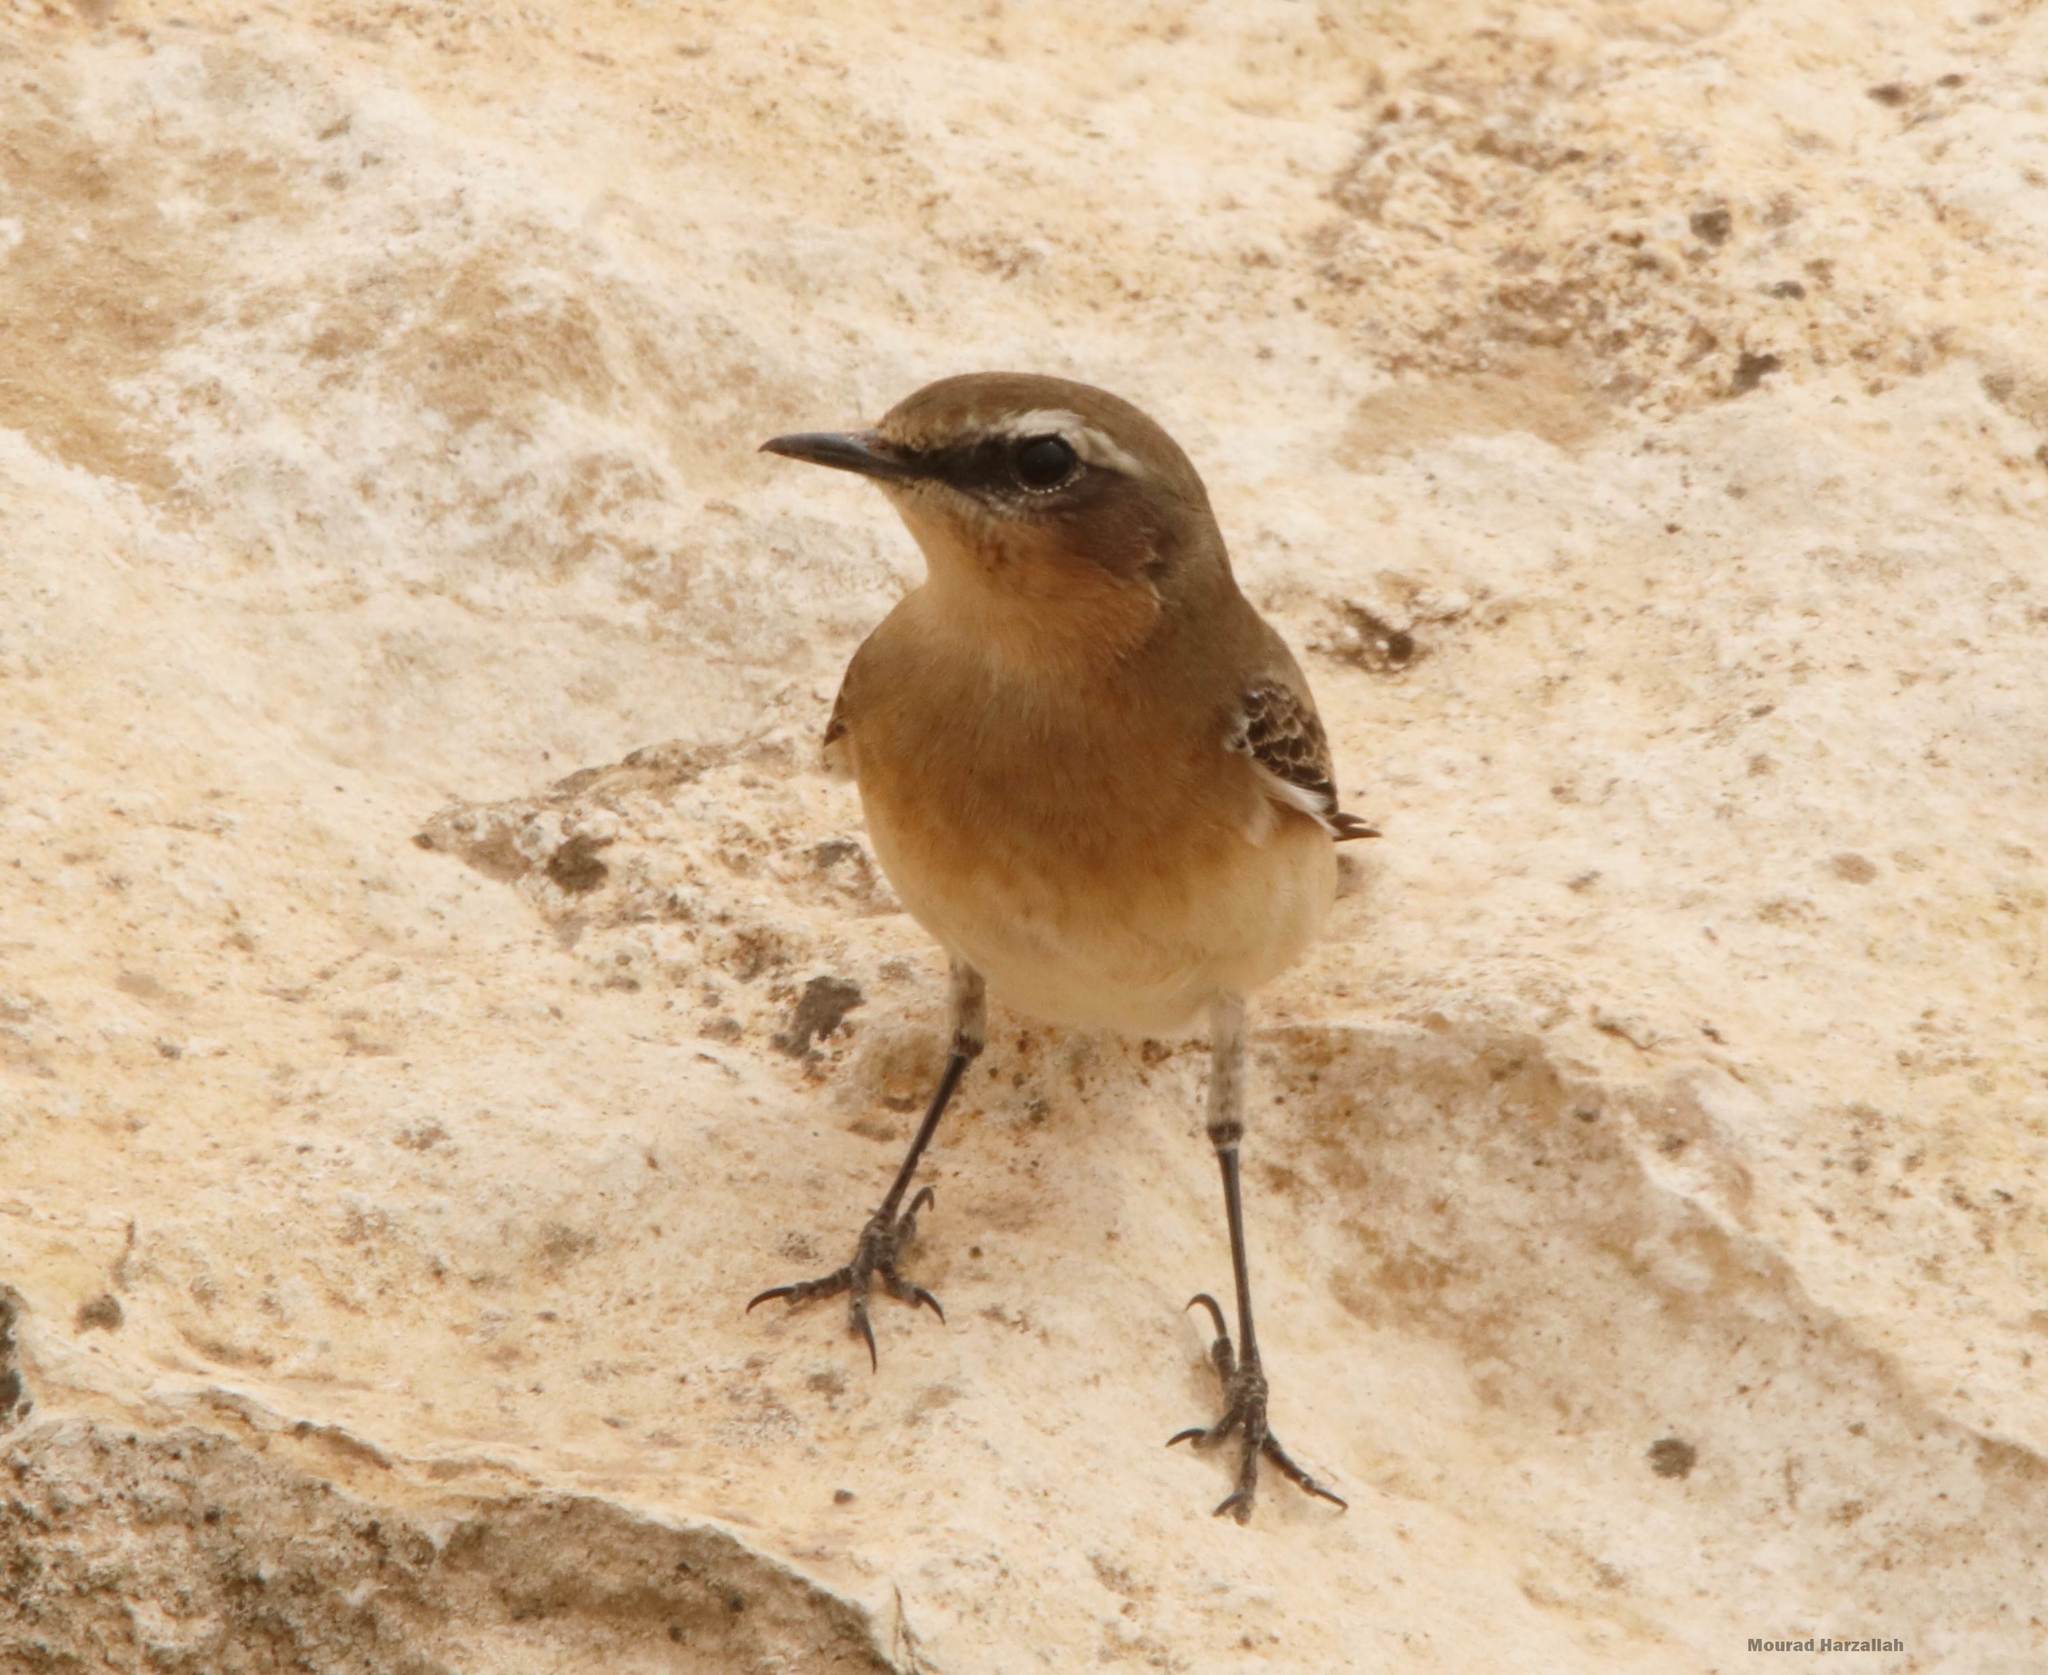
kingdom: Animalia
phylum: Chordata
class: Aves
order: Passeriformes
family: Muscicapidae
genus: Oenanthe
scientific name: Oenanthe oenanthe
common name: Northern wheatear
